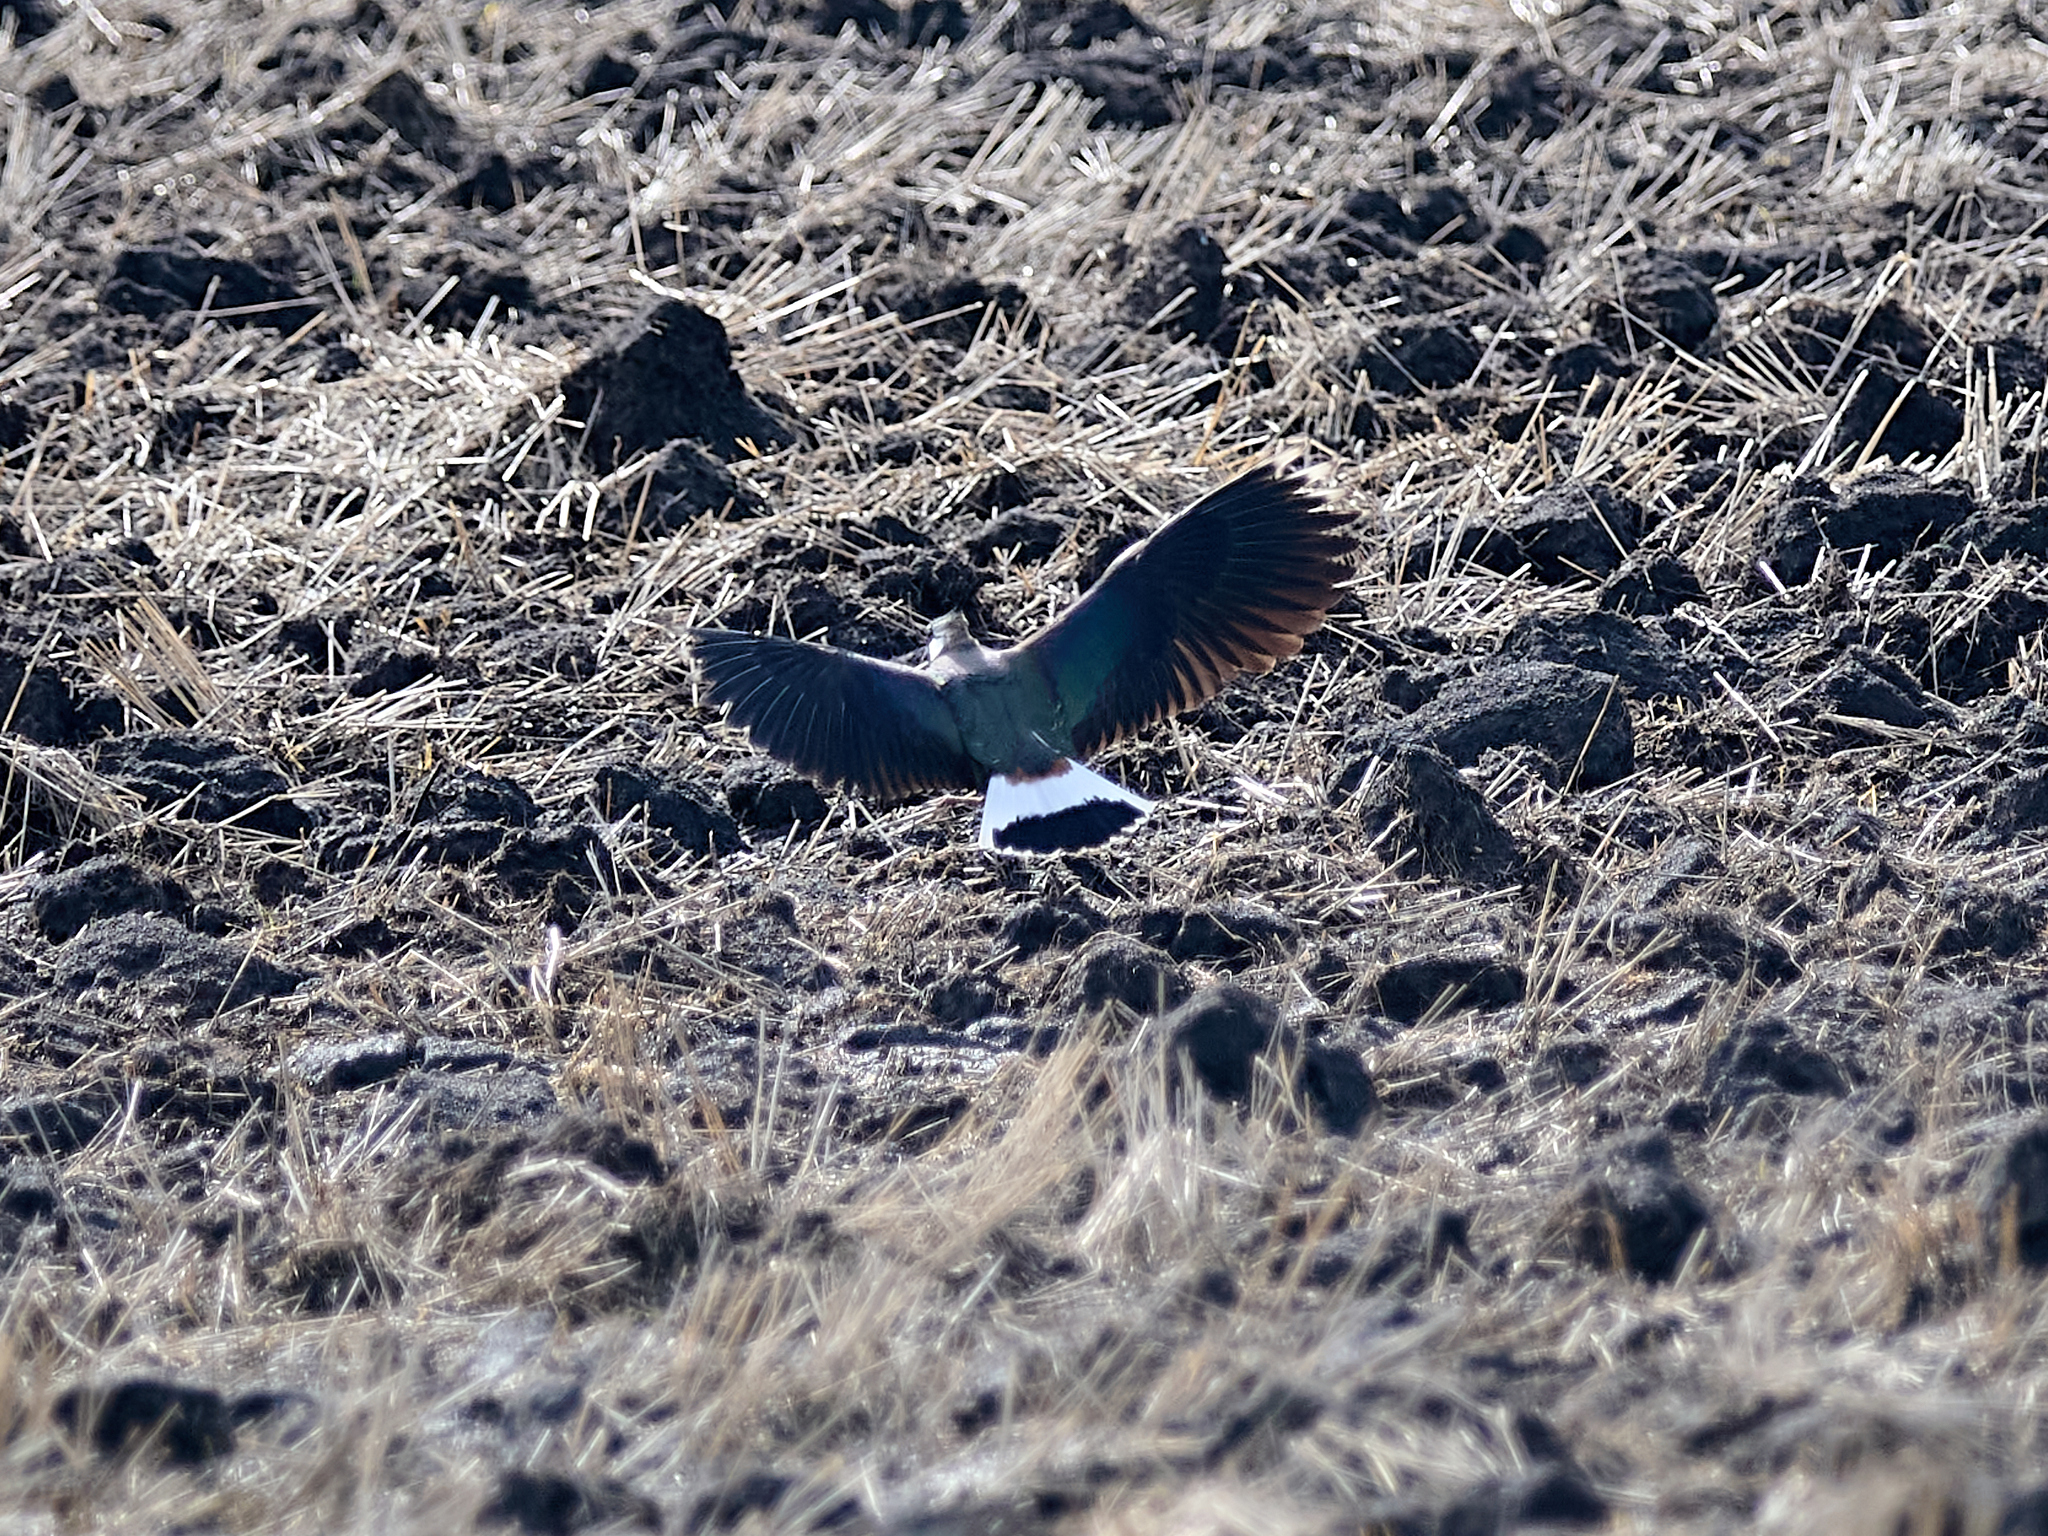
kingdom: Animalia
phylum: Chordata
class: Aves
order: Charadriiformes
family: Charadriidae
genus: Vanellus
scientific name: Vanellus vanellus
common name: Northern lapwing
